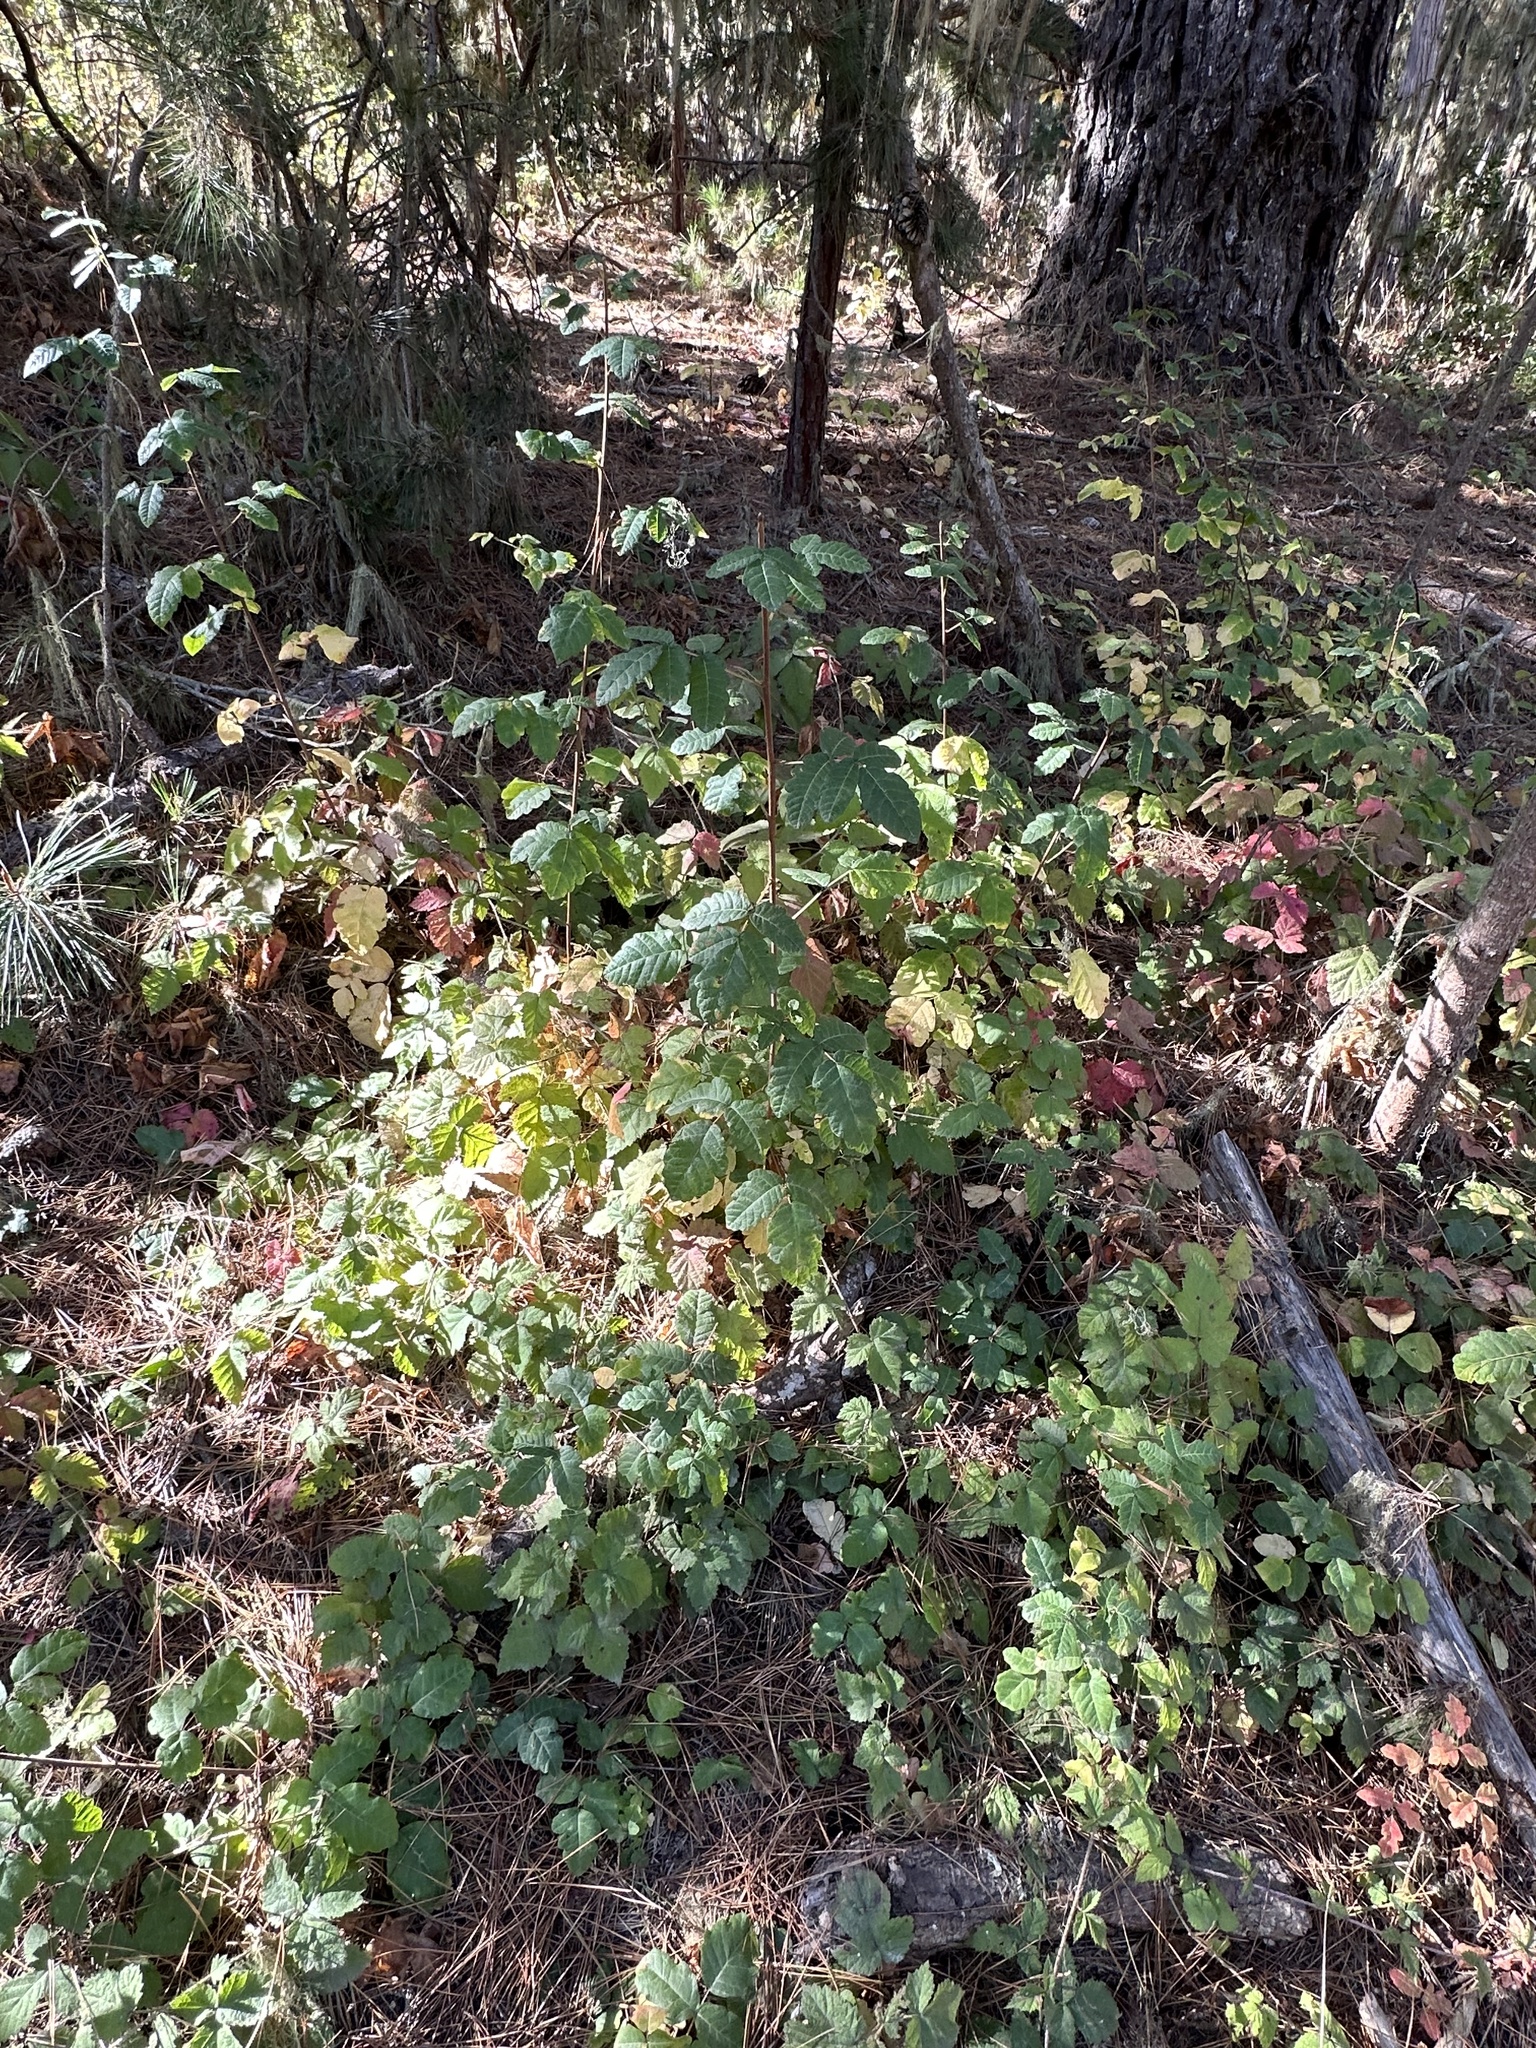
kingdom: Plantae
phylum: Tracheophyta
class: Magnoliopsida
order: Sapindales
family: Anacardiaceae
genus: Toxicodendron
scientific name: Toxicodendron diversilobum
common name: Pacific poison-oak
